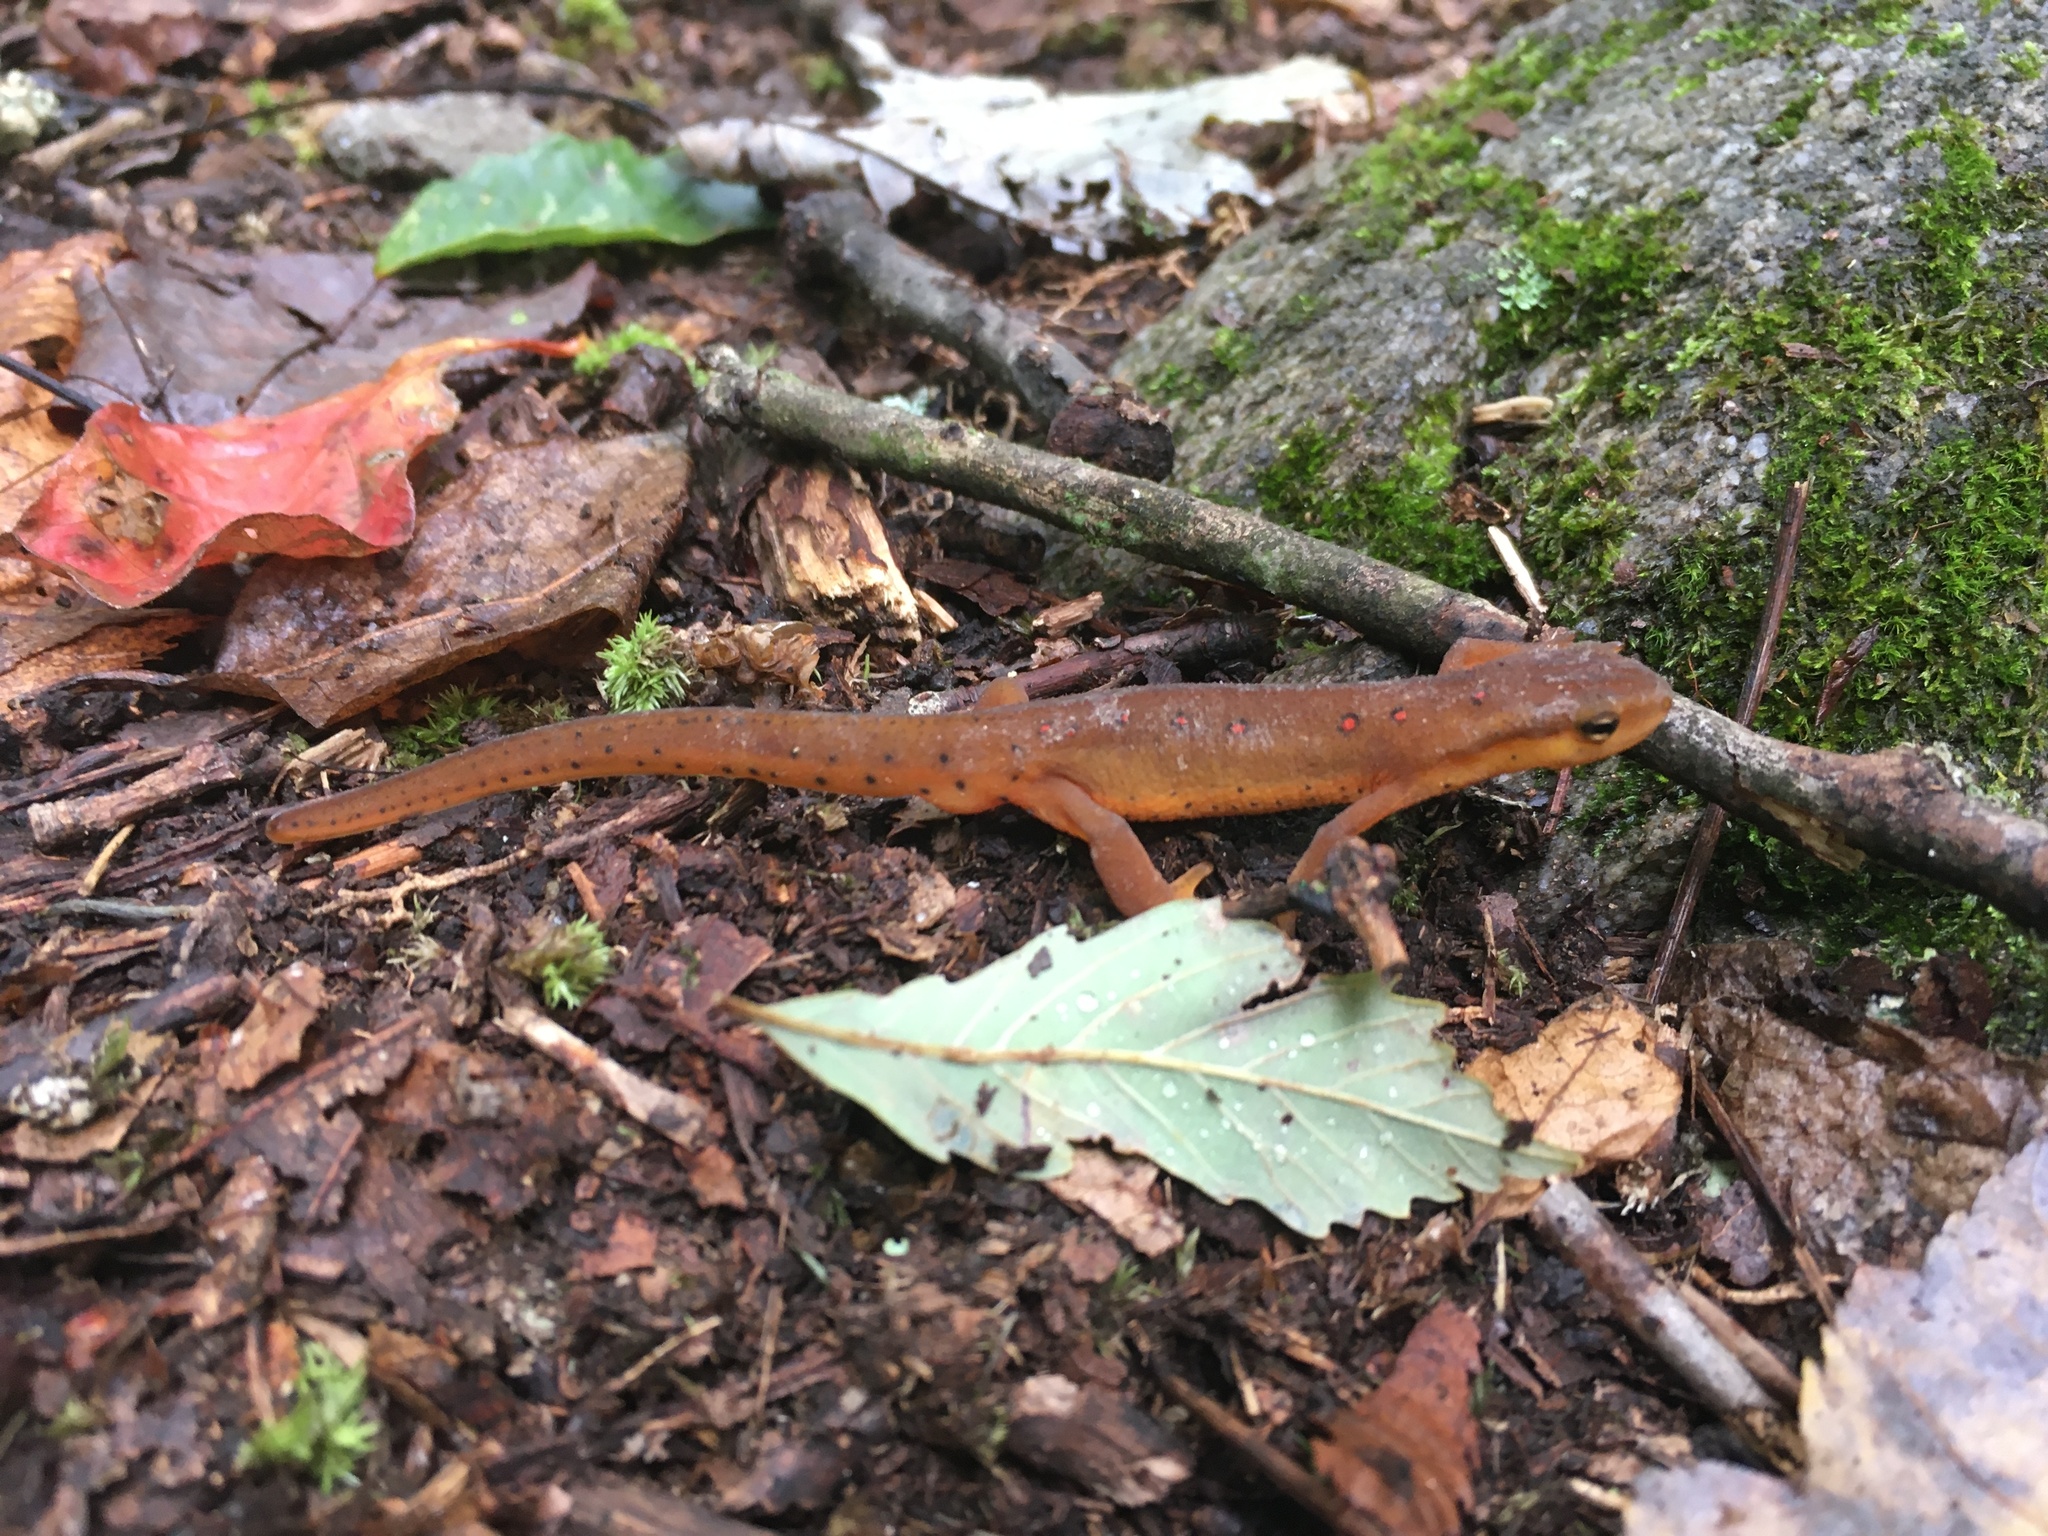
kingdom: Animalia
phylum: Chordata
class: Amphibia
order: Caudata
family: Salamandridae
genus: Notophthalmus
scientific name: Notophthalmus viridescens
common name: Eastern newt
